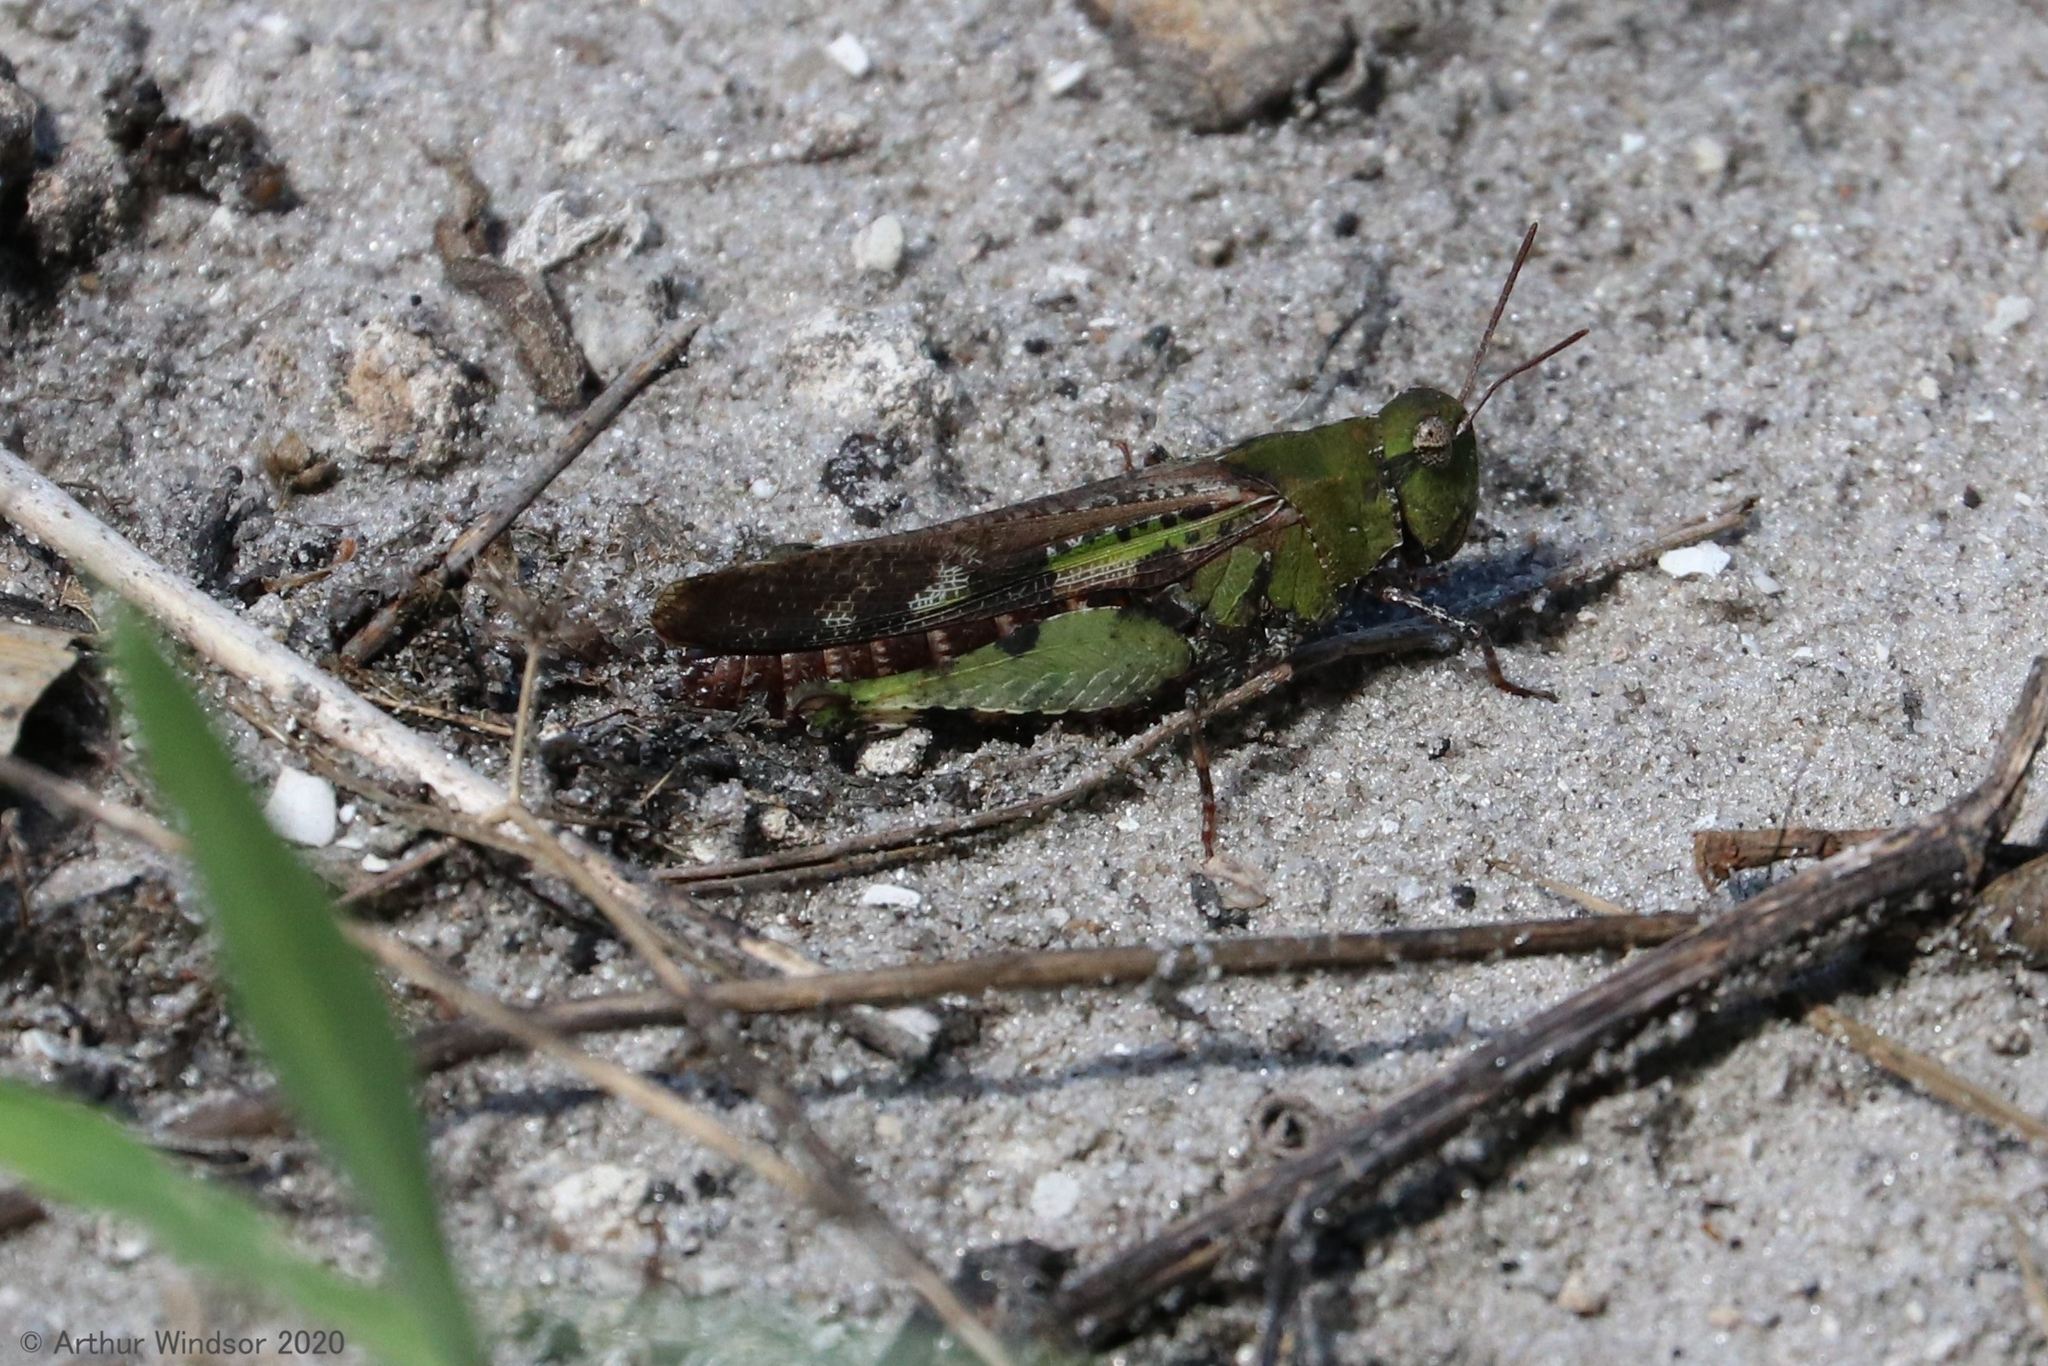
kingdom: Animalia
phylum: Arthropoda
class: Insecta
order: Orthoptera
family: Acrididae
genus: Chortophaga
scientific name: Chortophaga australior
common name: Southern green-striped grasshopper
